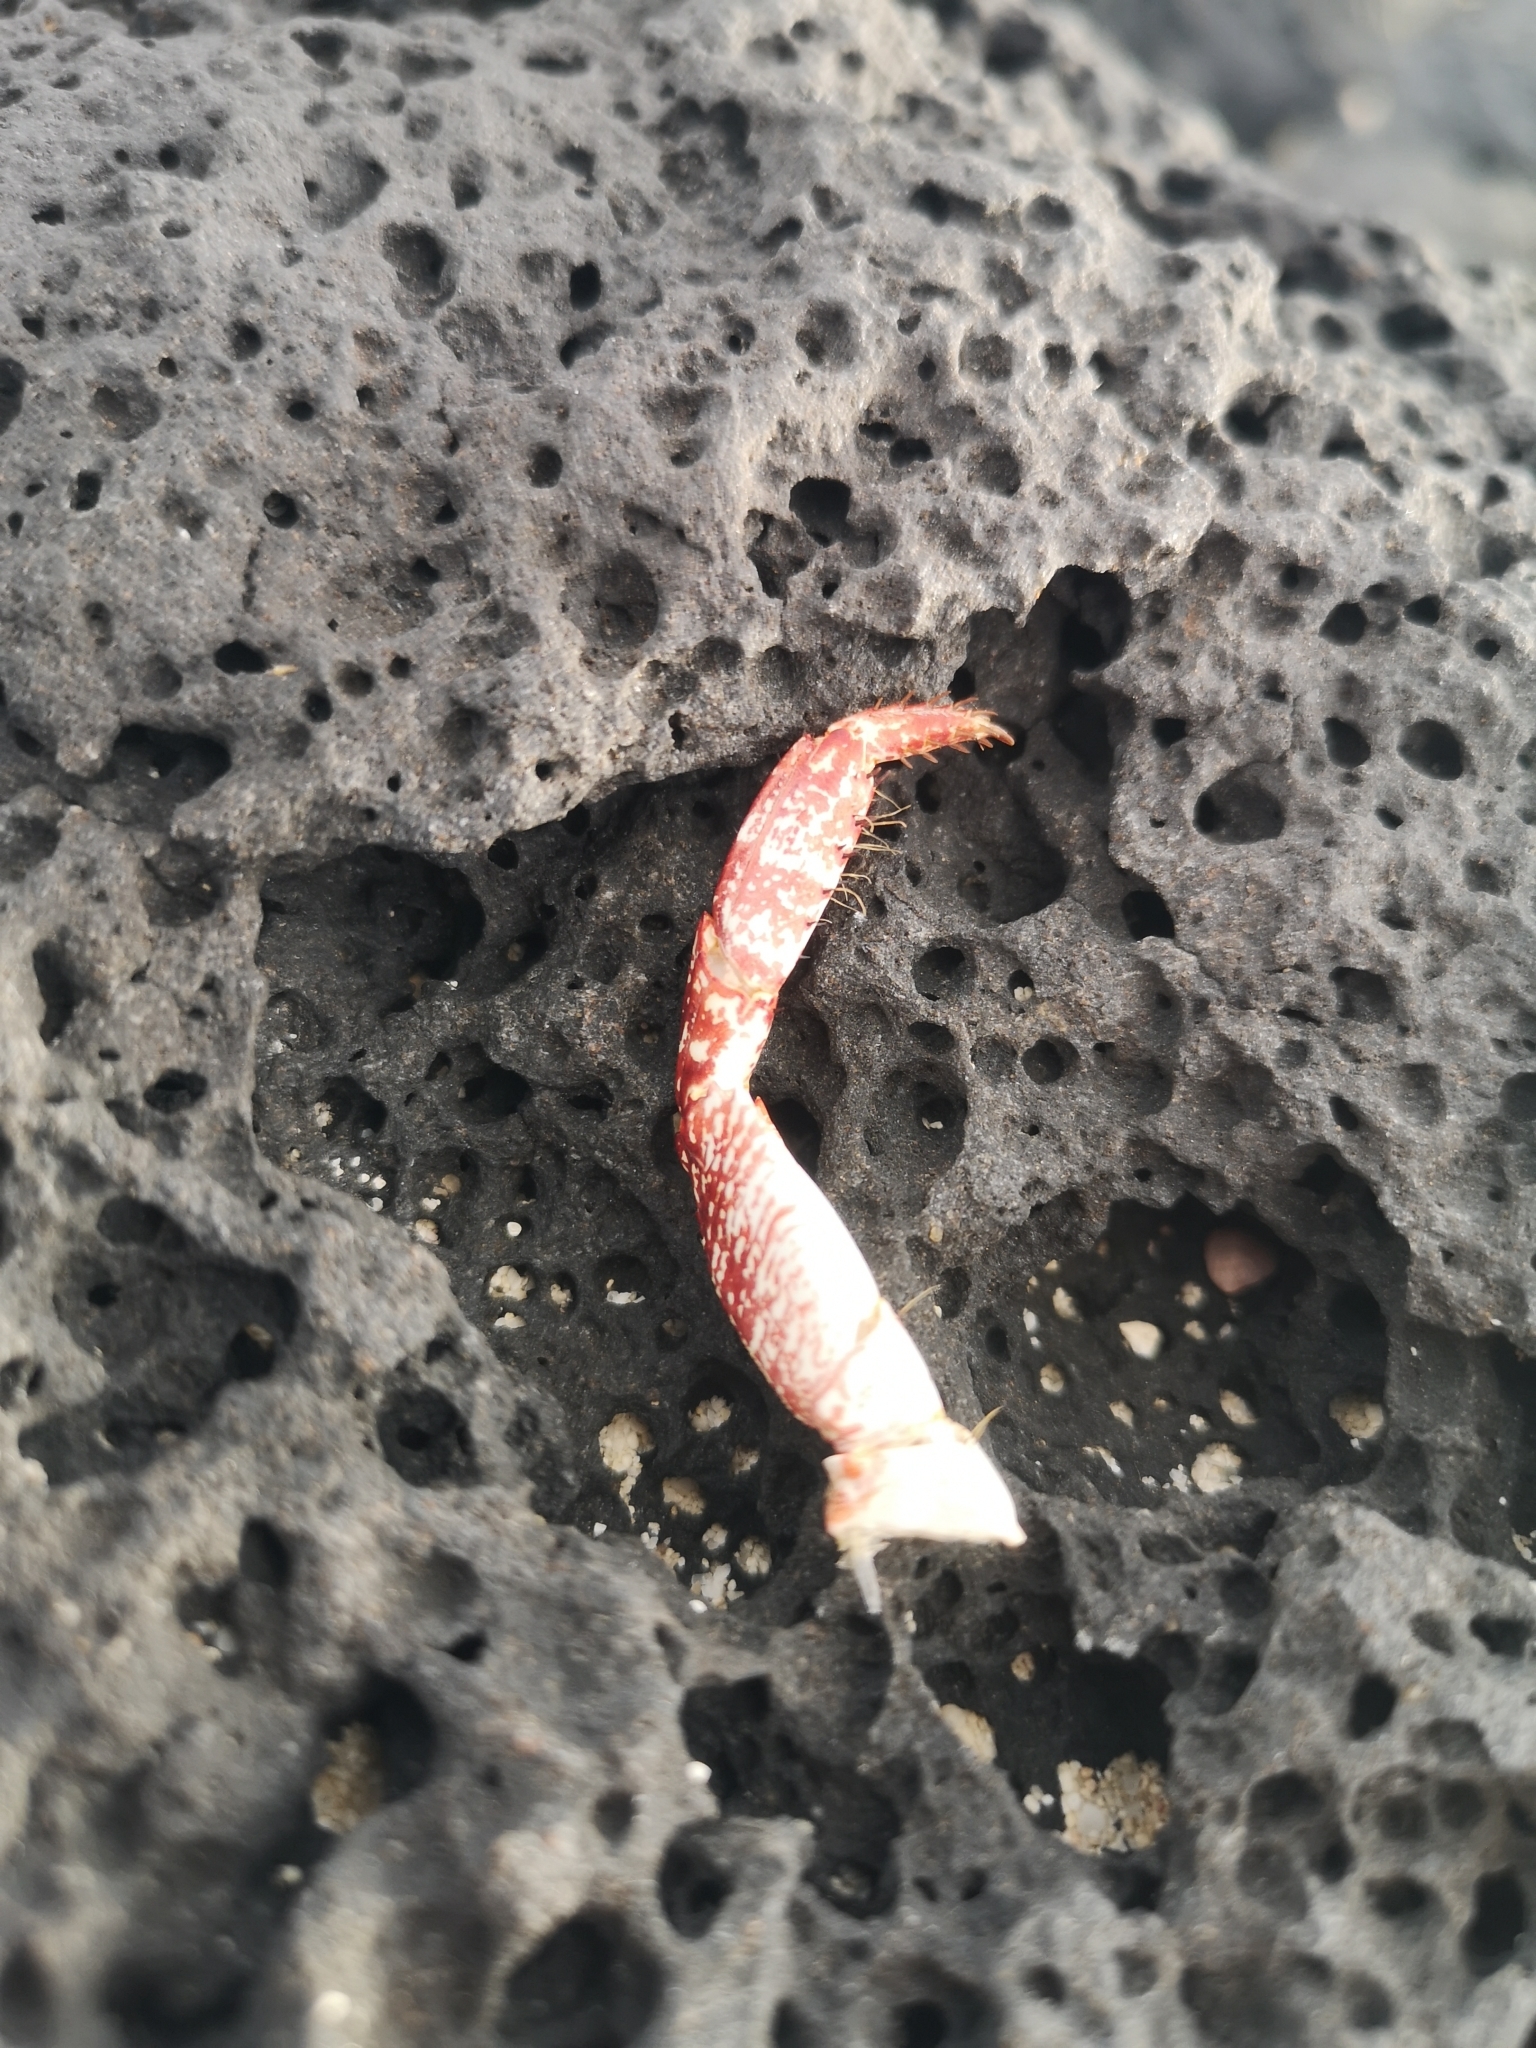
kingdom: Animalia
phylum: Arthropoda
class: Malacostraca
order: Decapoda
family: Grapsidae
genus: Grapsus
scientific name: Grapsus adscensionis
